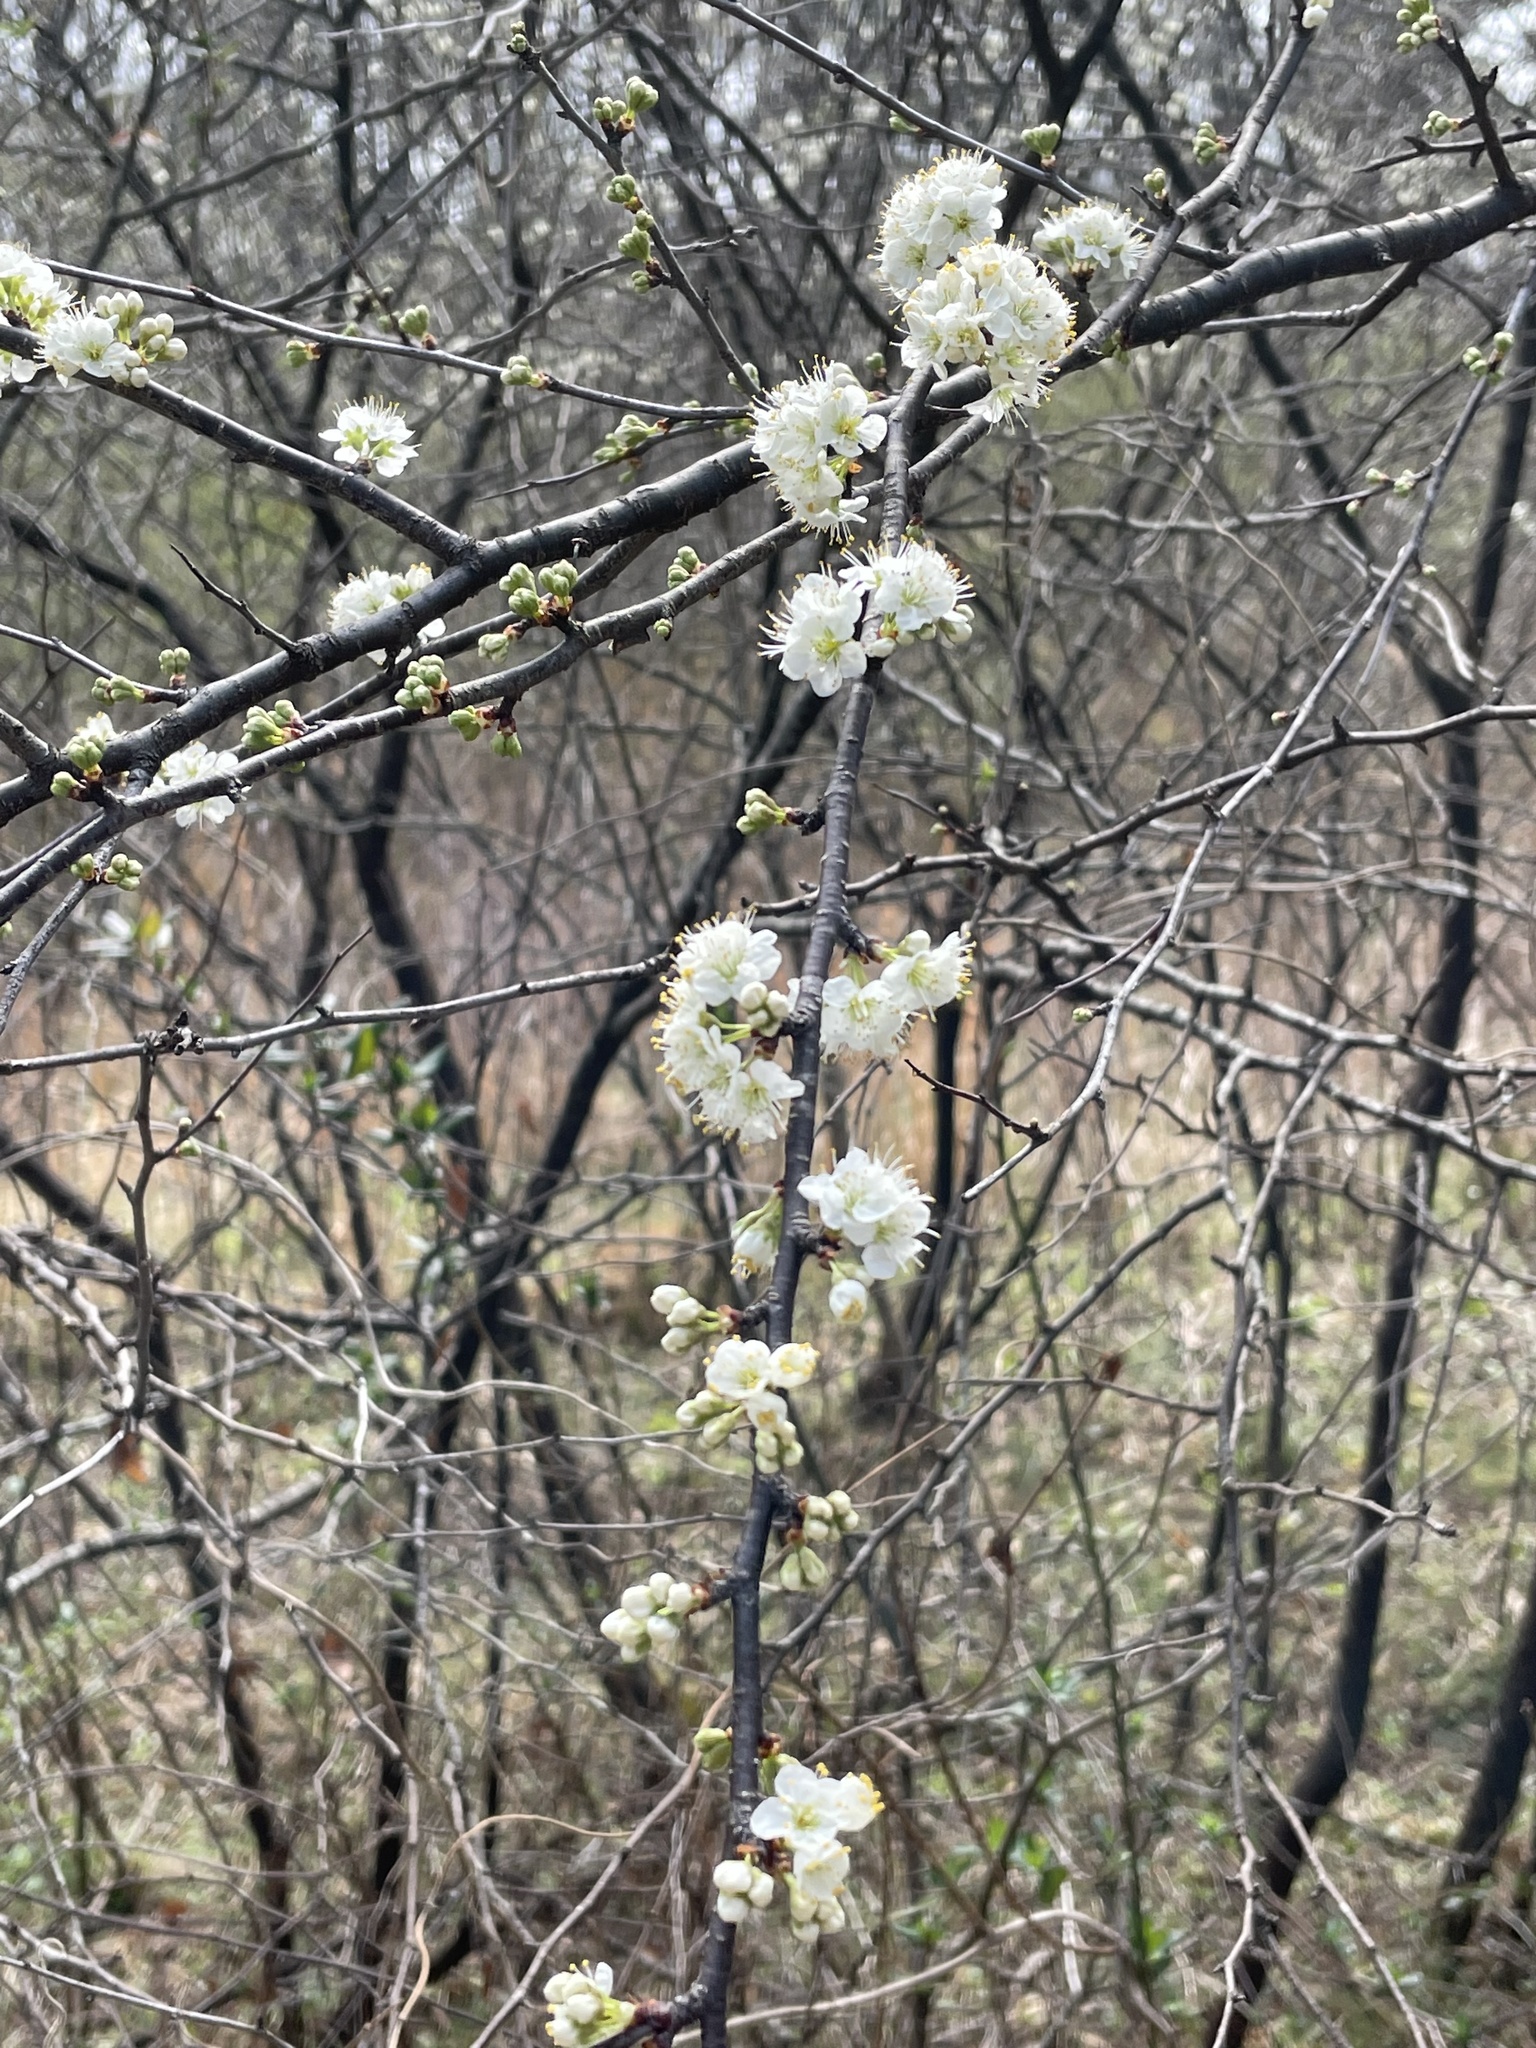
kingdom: Plantae
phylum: Tracheophyta
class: Magnoliopsida
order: Rosales
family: Rosaceae
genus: Prunus
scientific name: Prunus angustifolia
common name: Cherokee plum
